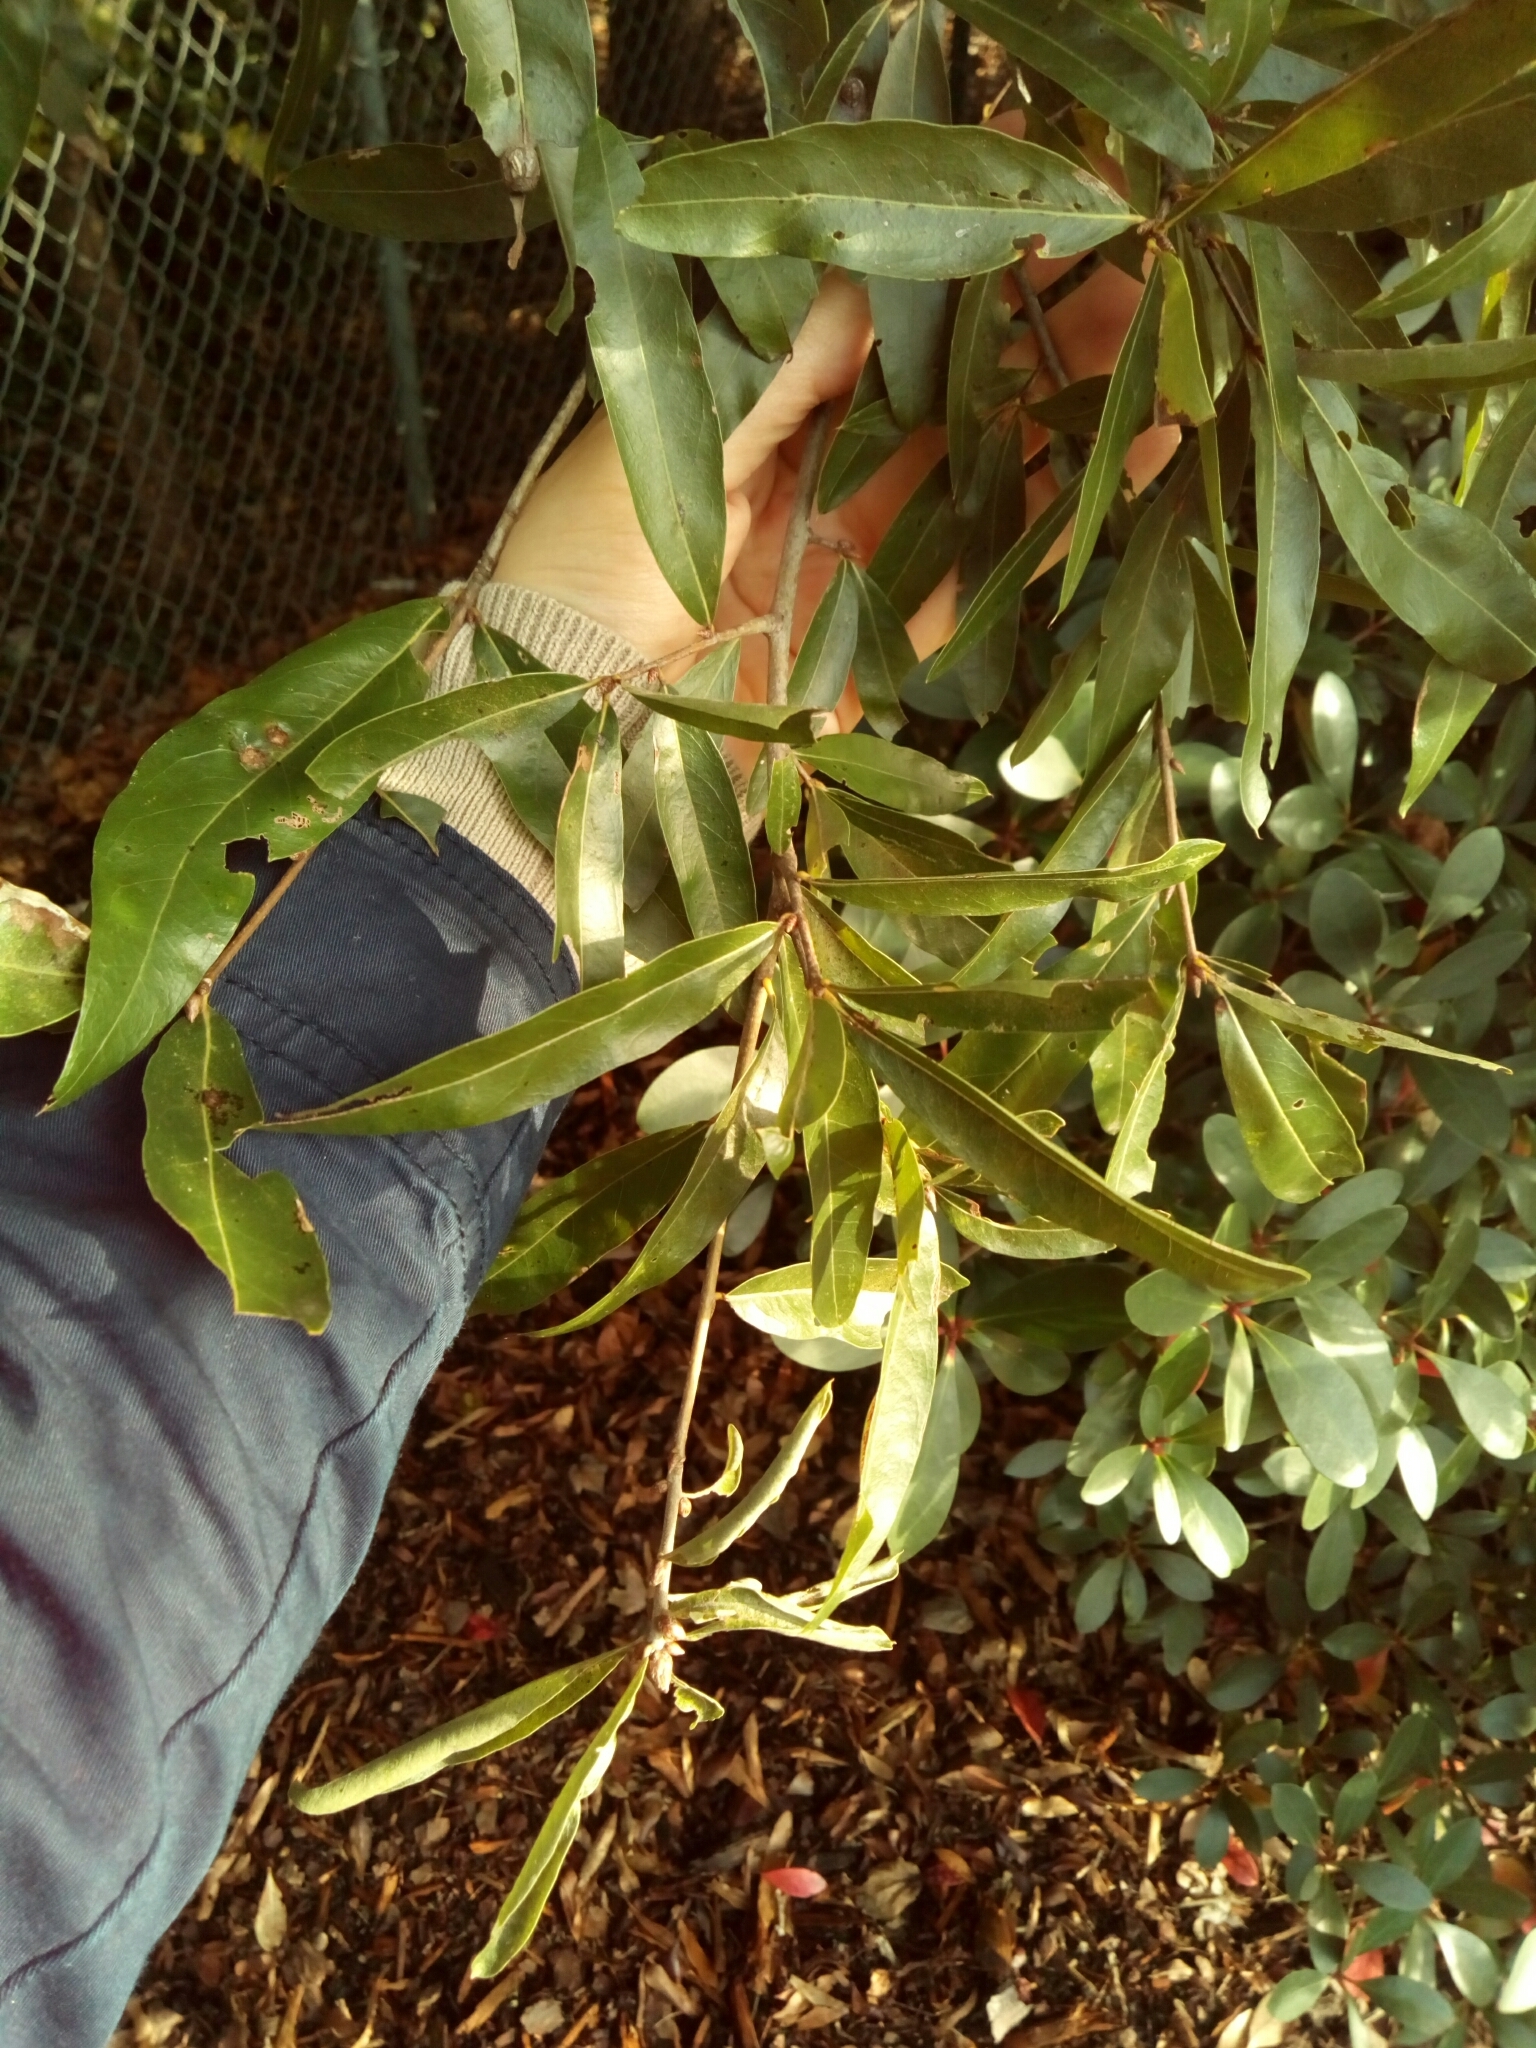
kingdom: Plantae
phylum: Tracheophyta
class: Magnoliopsida
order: Fagales
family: Fagaceae
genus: Quercus
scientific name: Quercus phellos
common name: Willow oak
